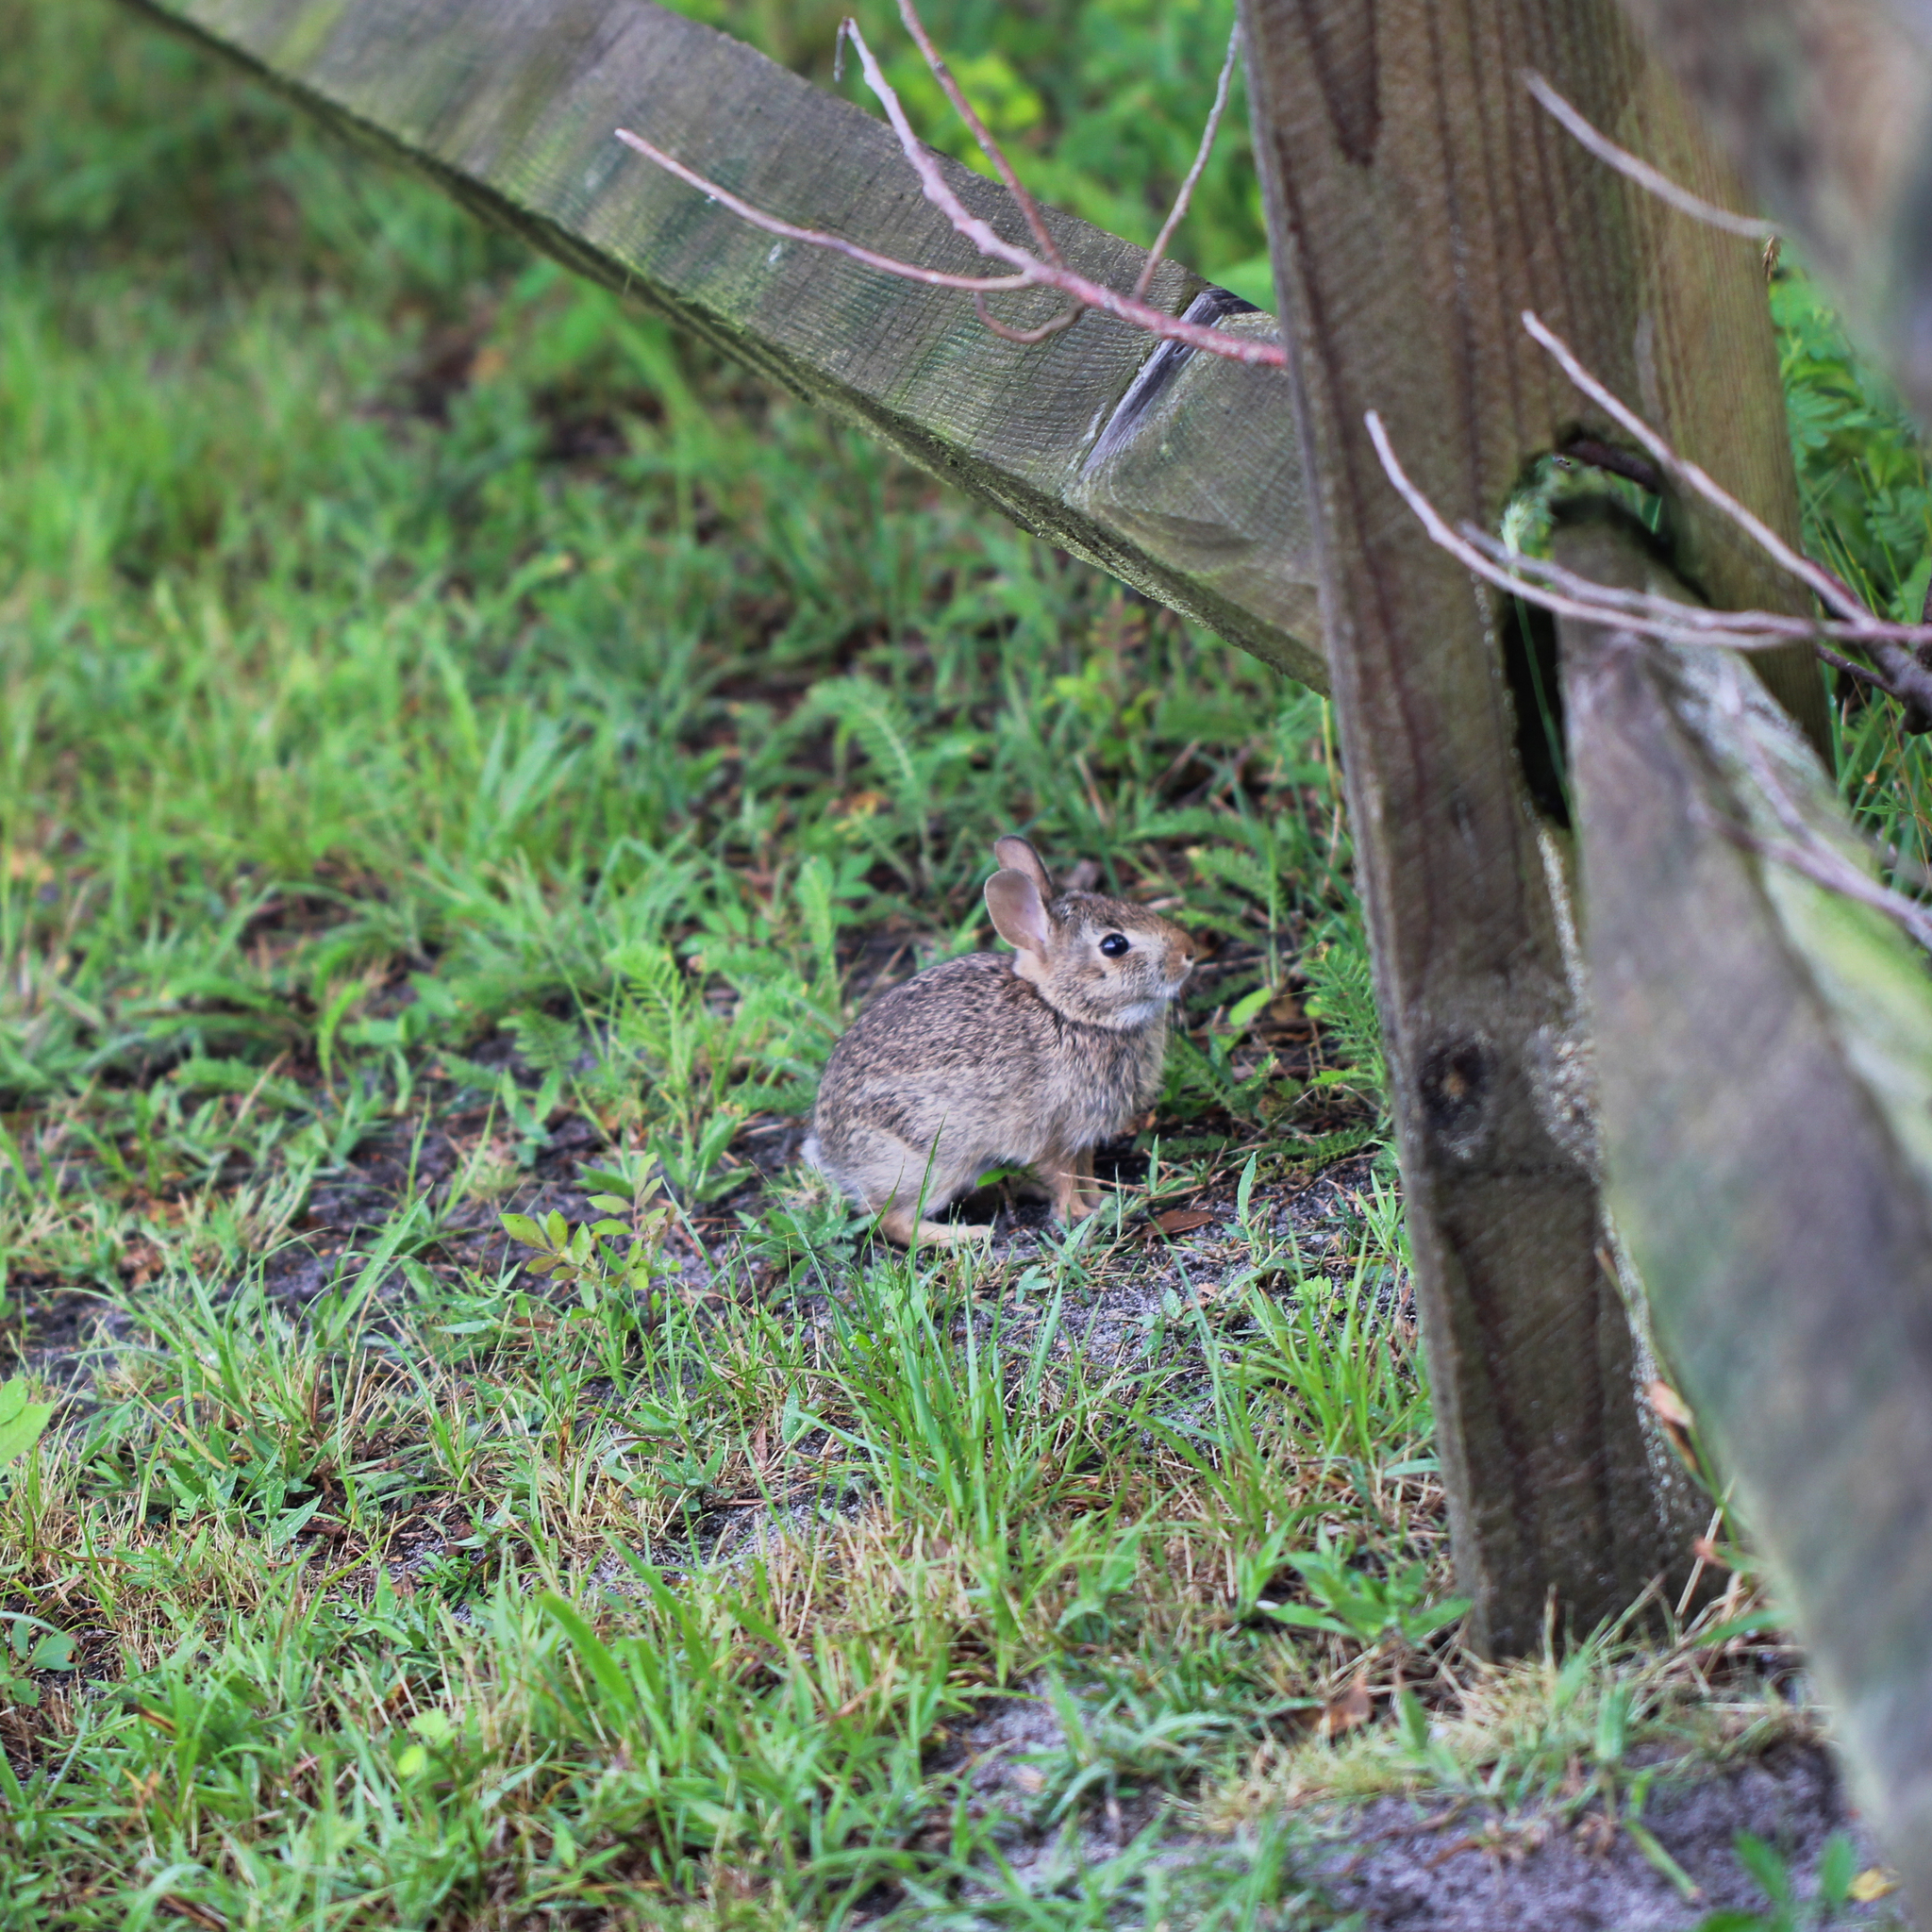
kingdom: Animalia
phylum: Chordata
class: Mammalia
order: Lagomorpha
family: Leporidae
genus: Sylvilagus
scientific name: Sylvilagus floridanus
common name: Eastern cottontail
